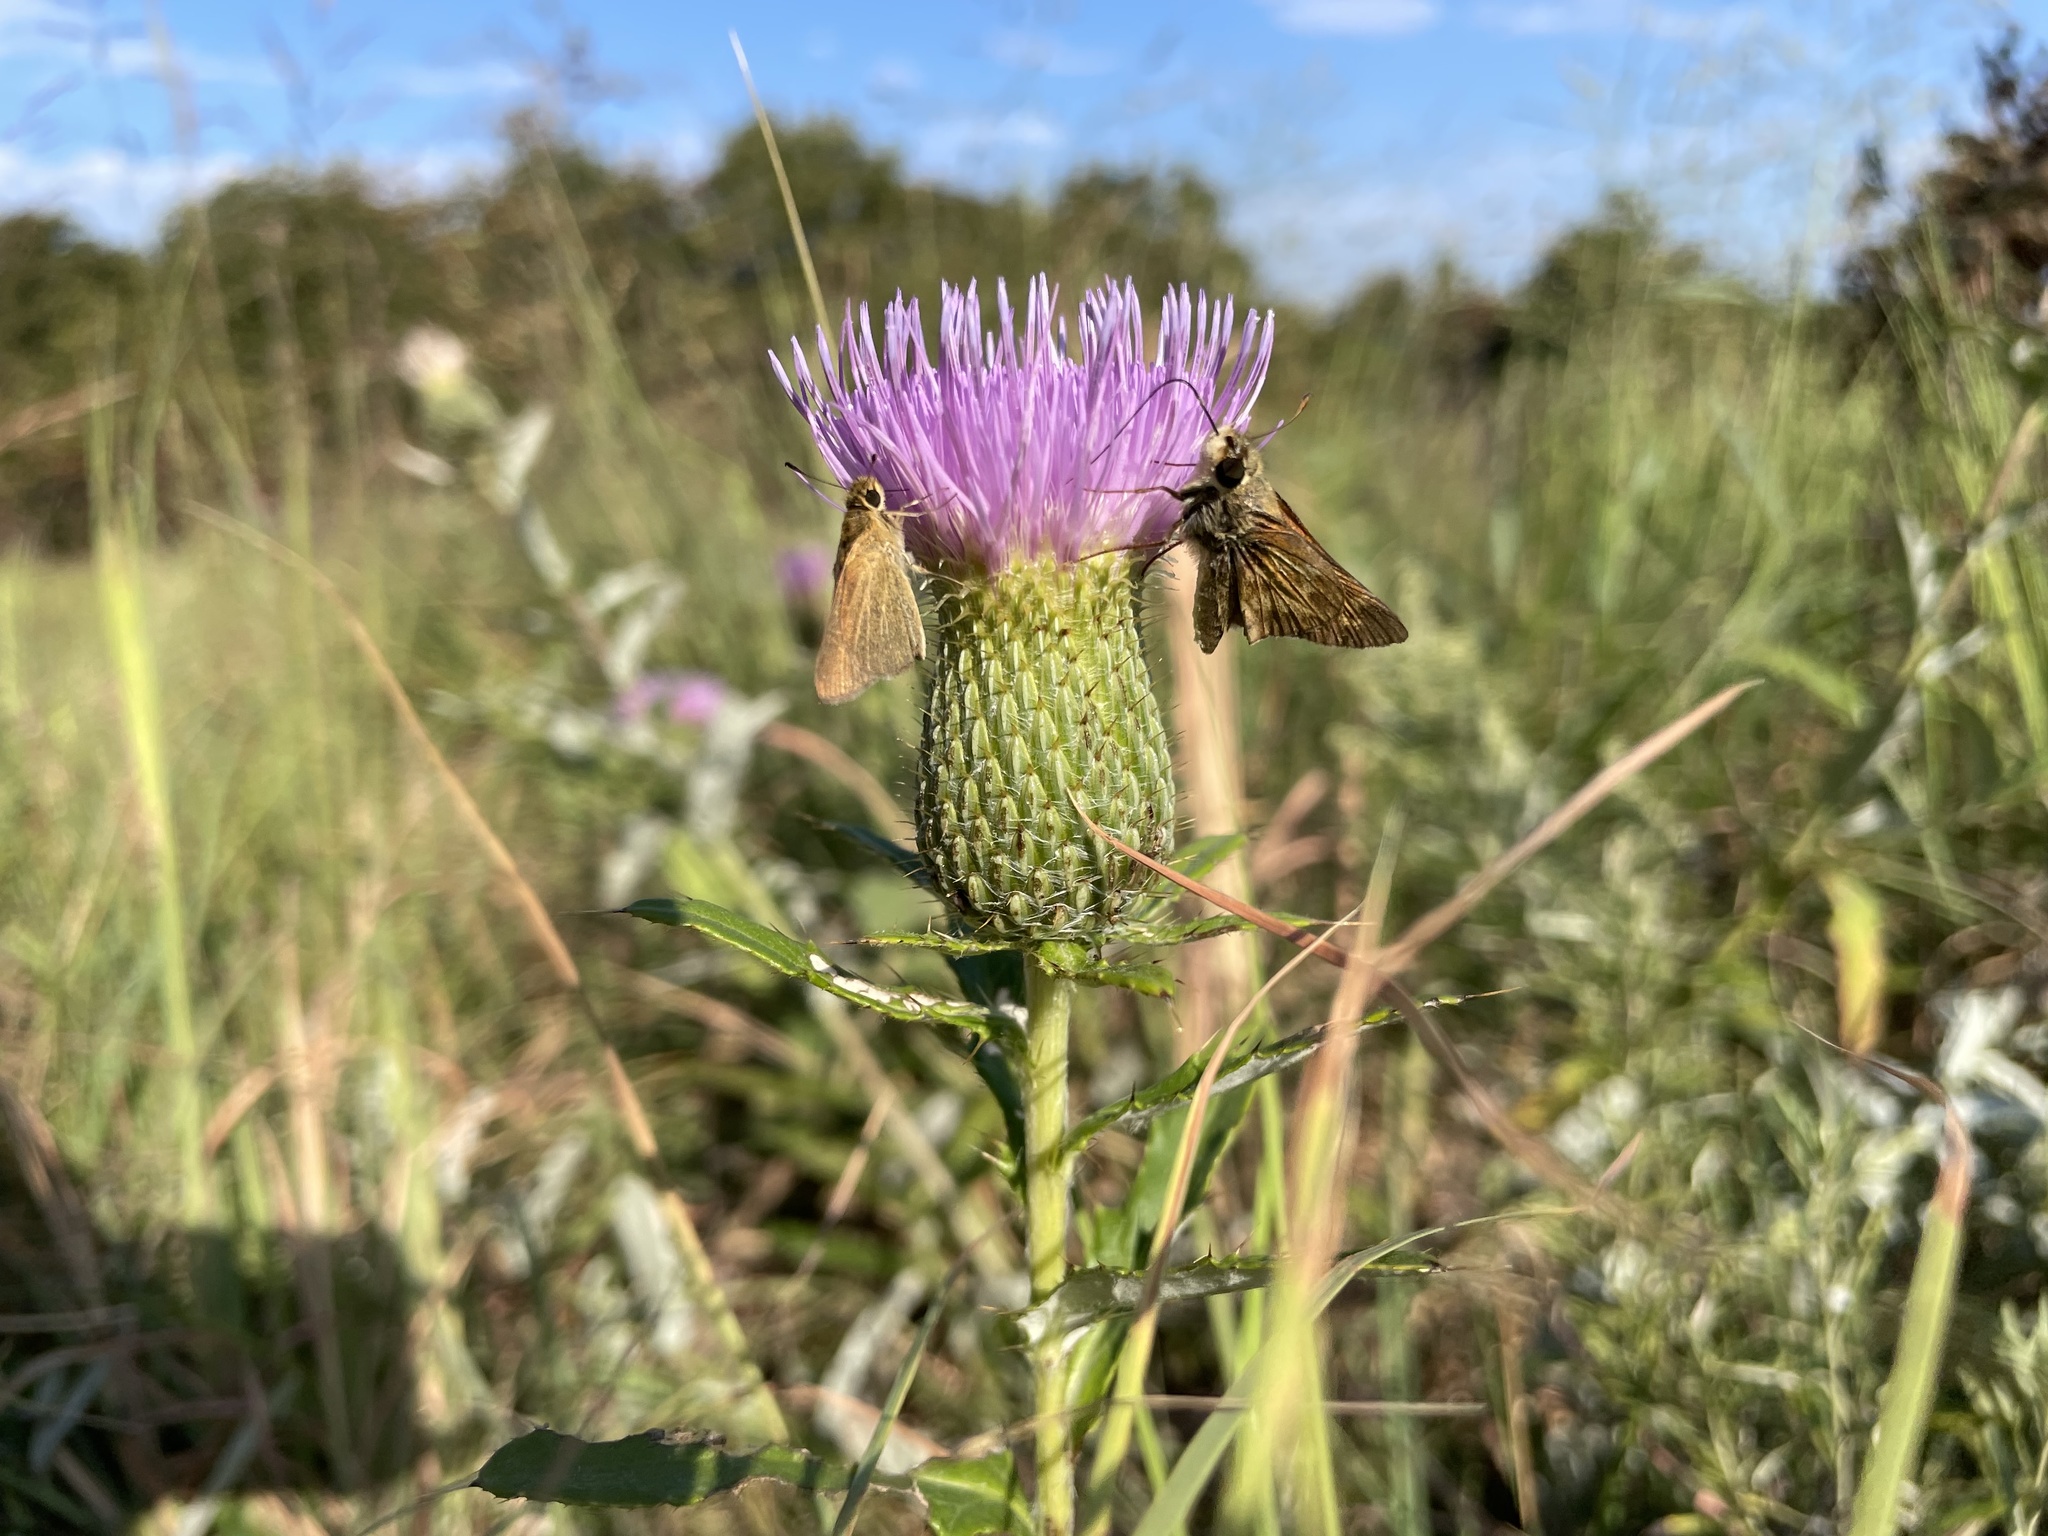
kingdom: Animalia
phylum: Arthropoda
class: Insecta
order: Lepidoptera
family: Hesperiidae
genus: Nastra
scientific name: Nastra lherminier
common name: Swarthy skipper
